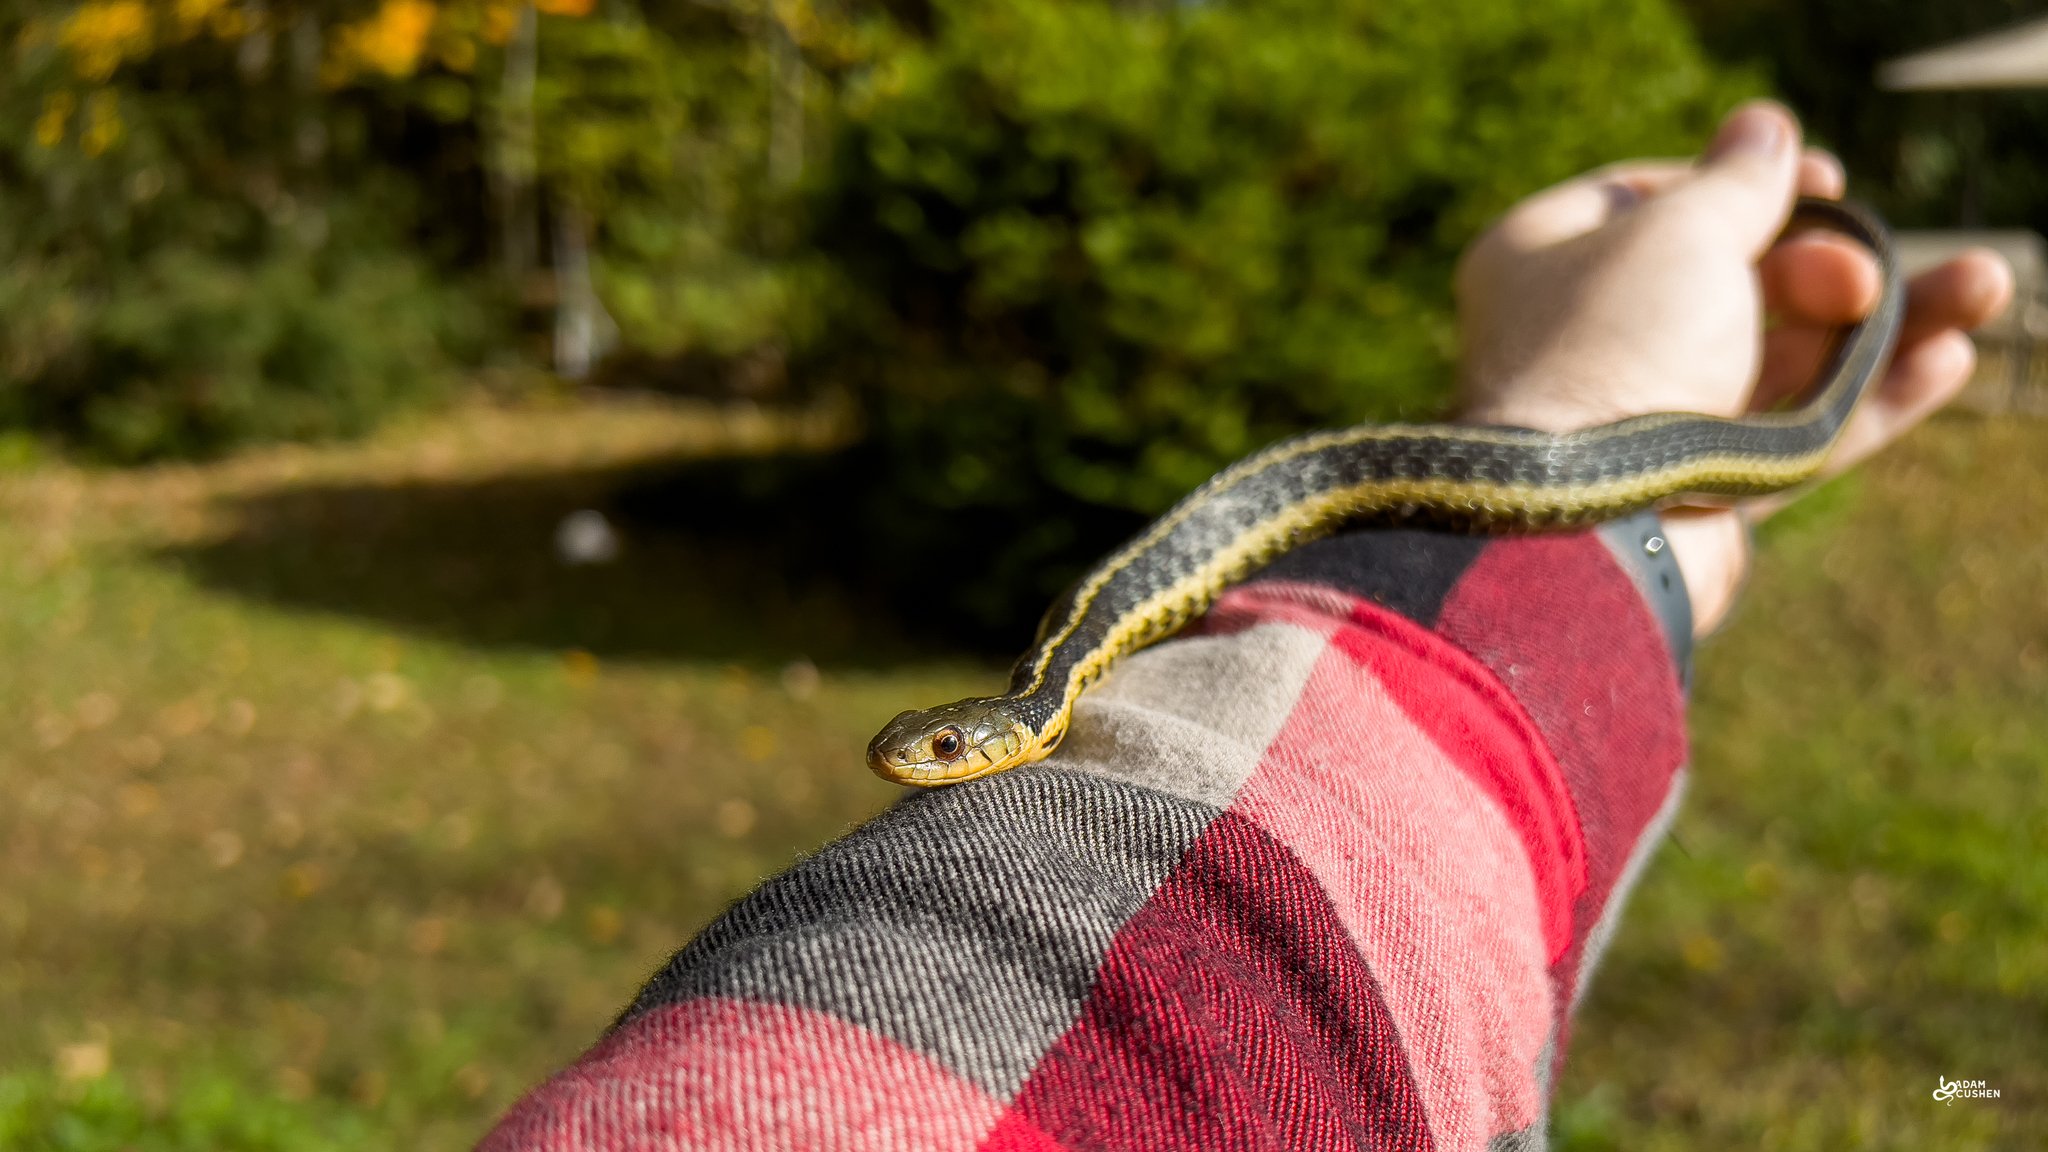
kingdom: Animalia
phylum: Chordata
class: Squamata
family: Colubridae
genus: Thamnophis
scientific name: Thamnophis sirtalis
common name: Common garter snake
